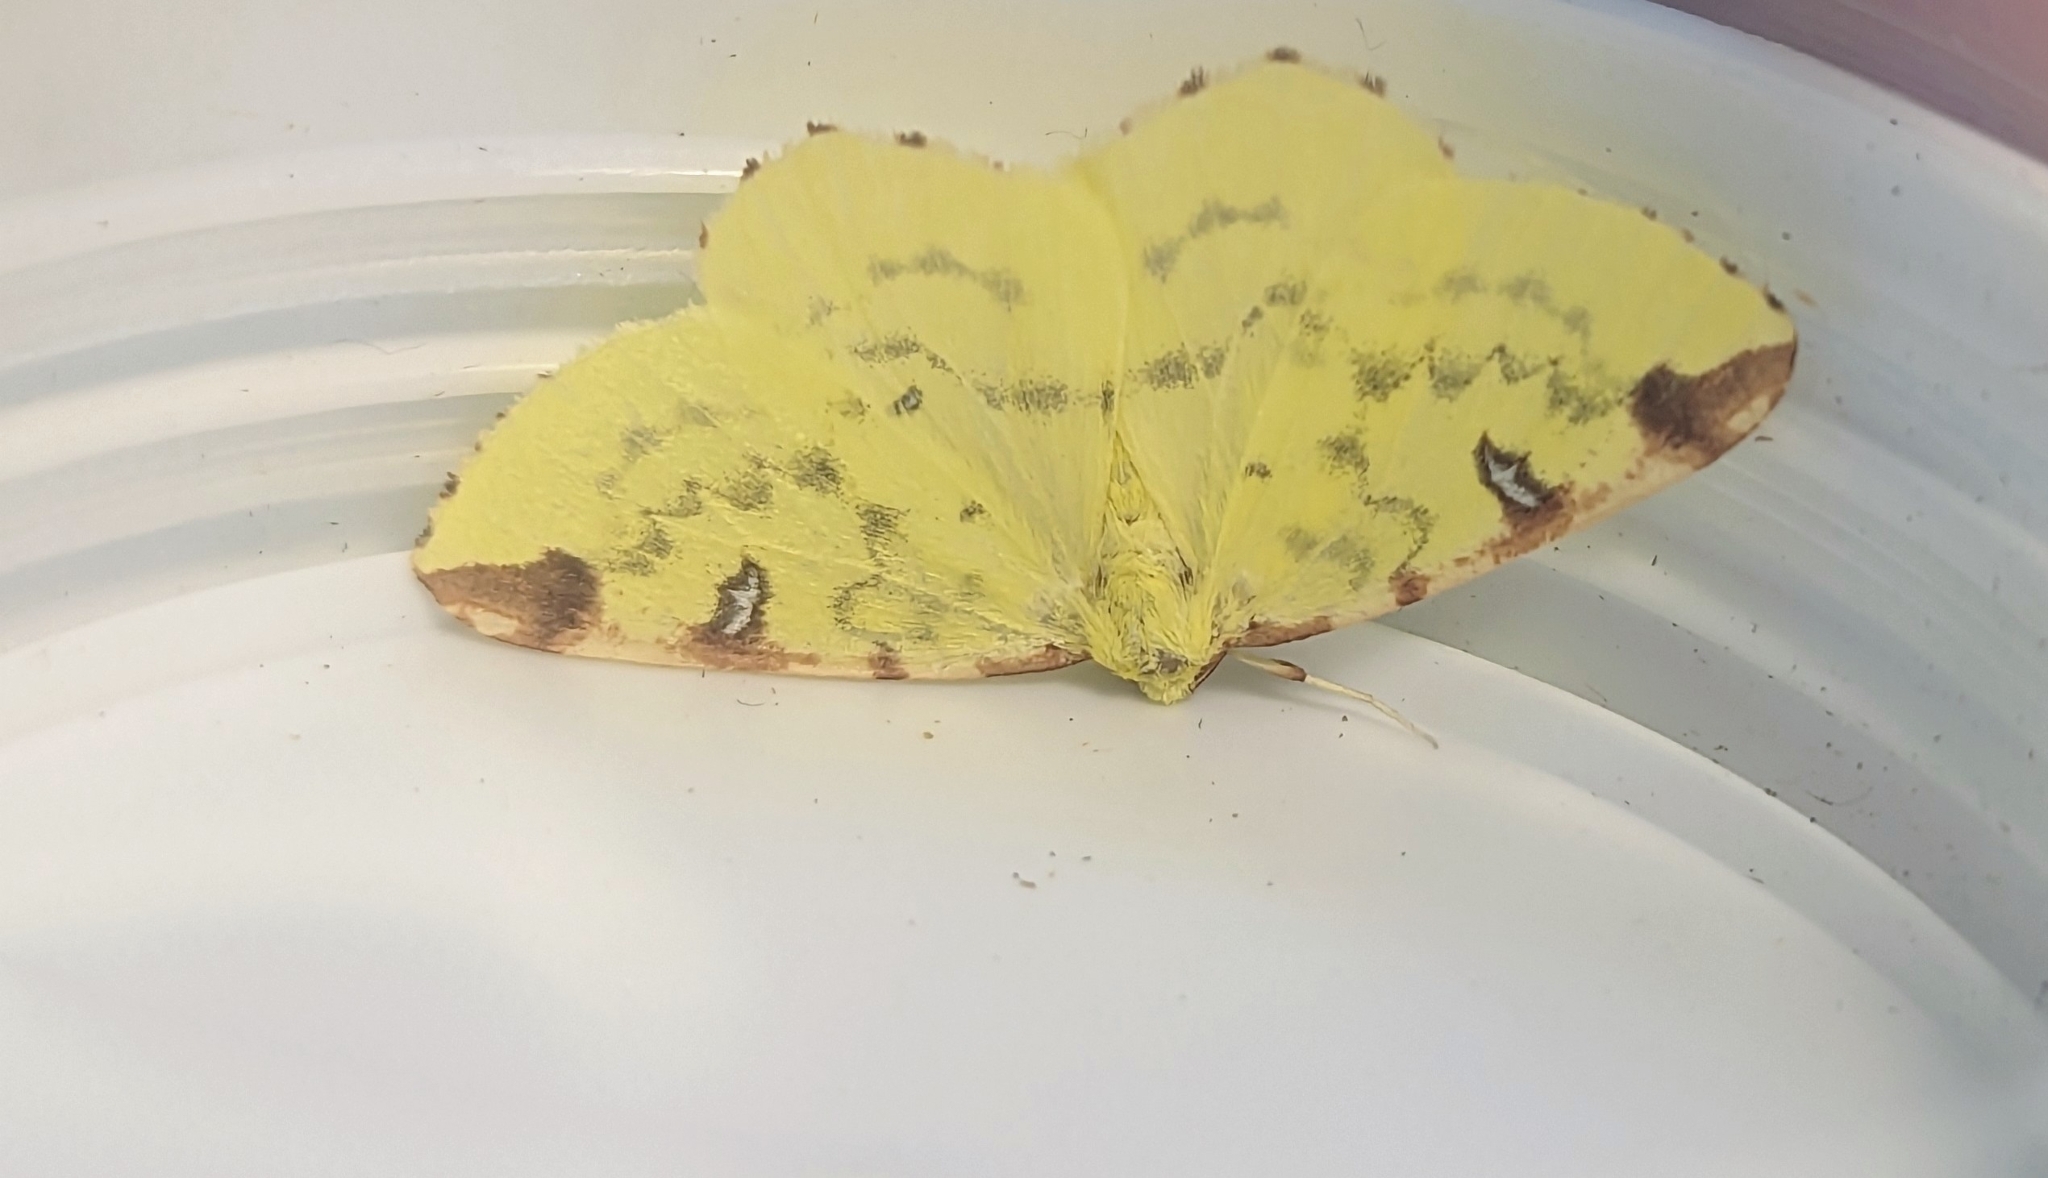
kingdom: Animalia
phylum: Arthropoda
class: Insecta
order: Lepidoptera
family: Geometridae
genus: Opisthograptis
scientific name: Opisthograptis luteolata
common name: Brimstone moth
